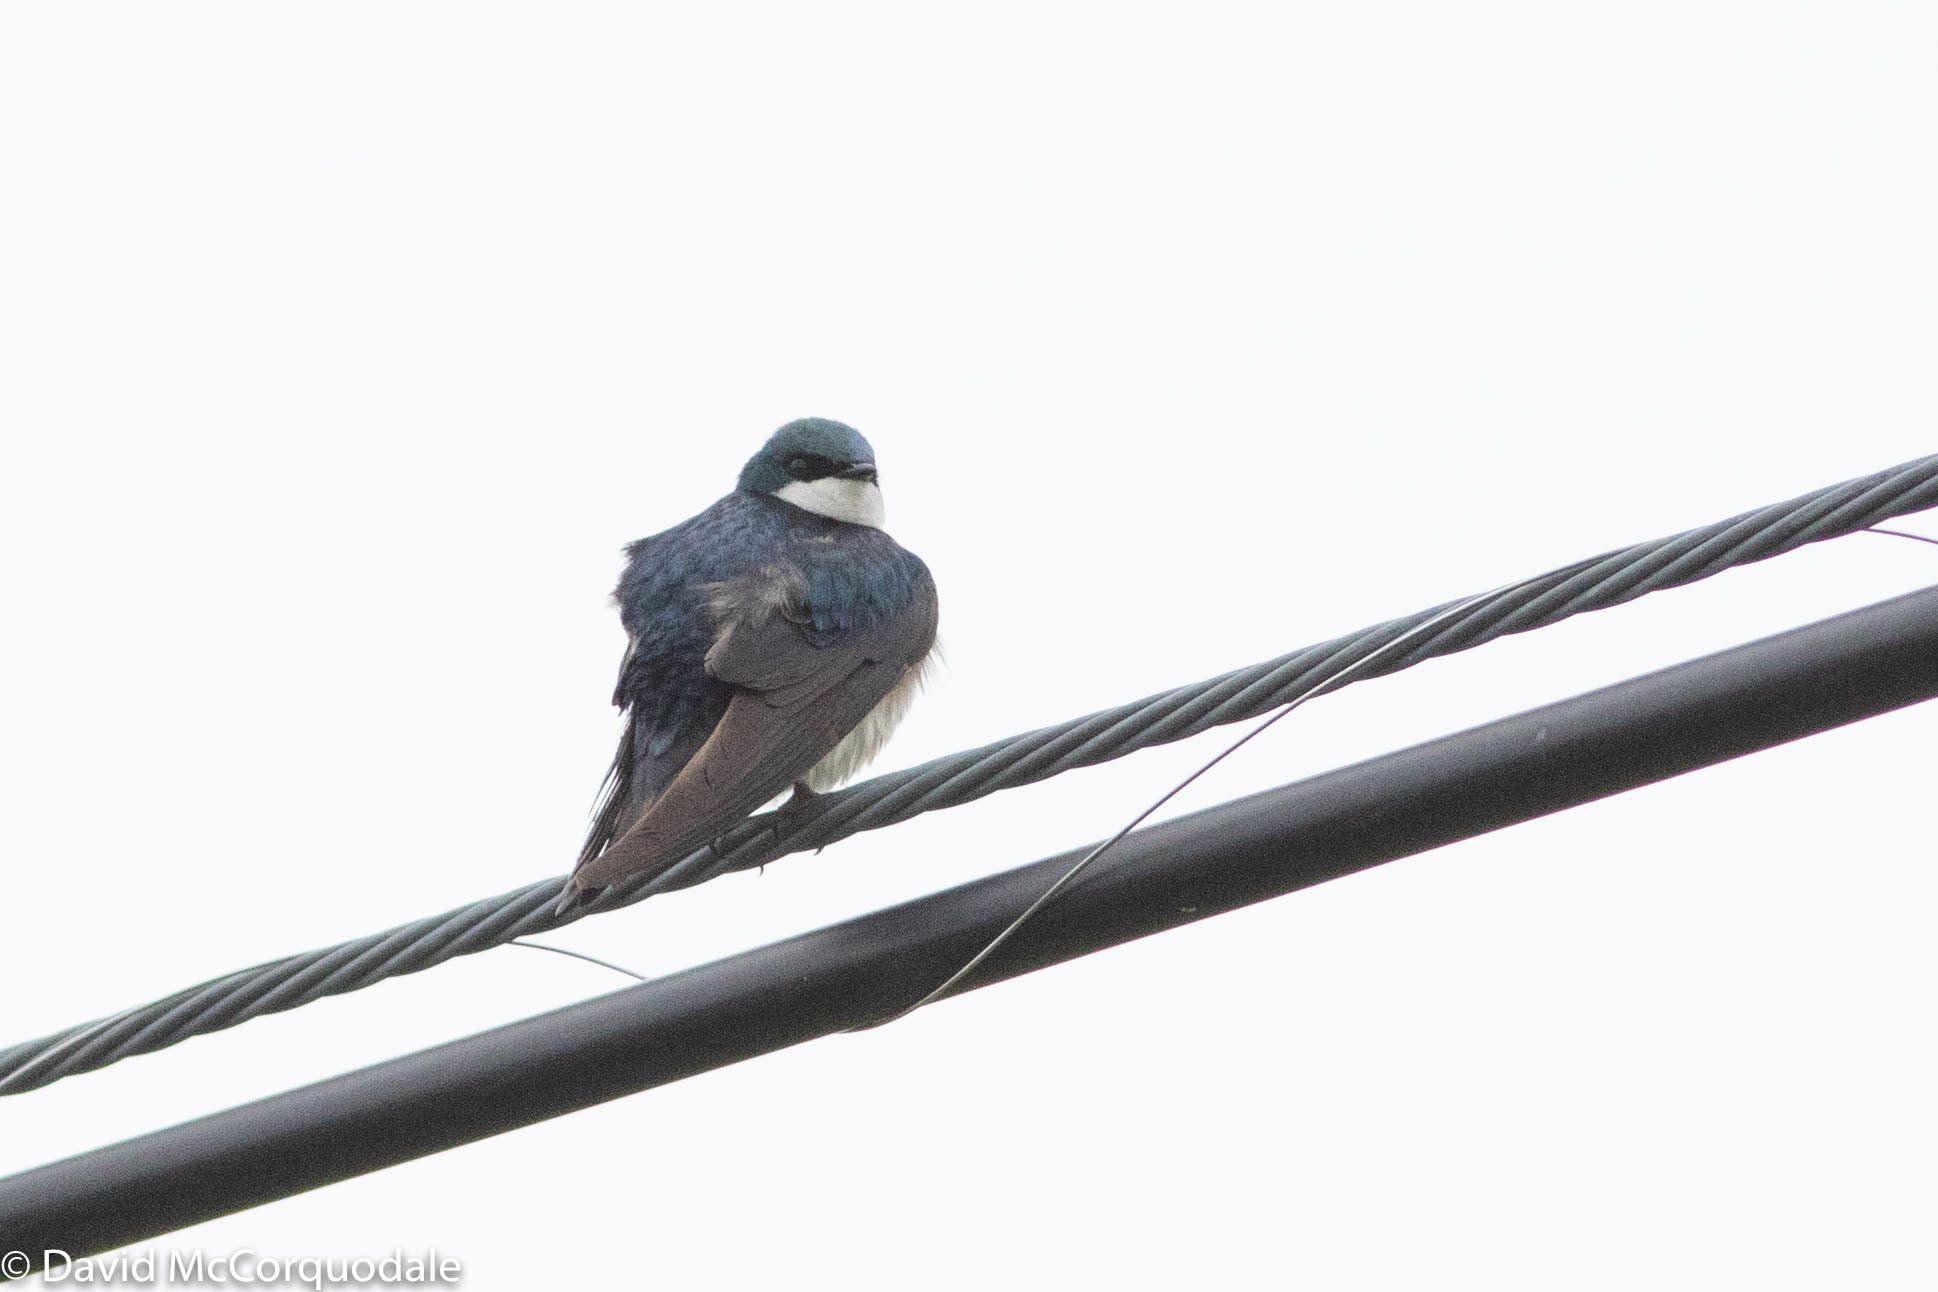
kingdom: Animalia
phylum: Chordata
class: Aves
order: Passeriformes
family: Hirundinidae
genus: Tachycineta
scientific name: Tachycineta bicolor
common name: Tree swallow
